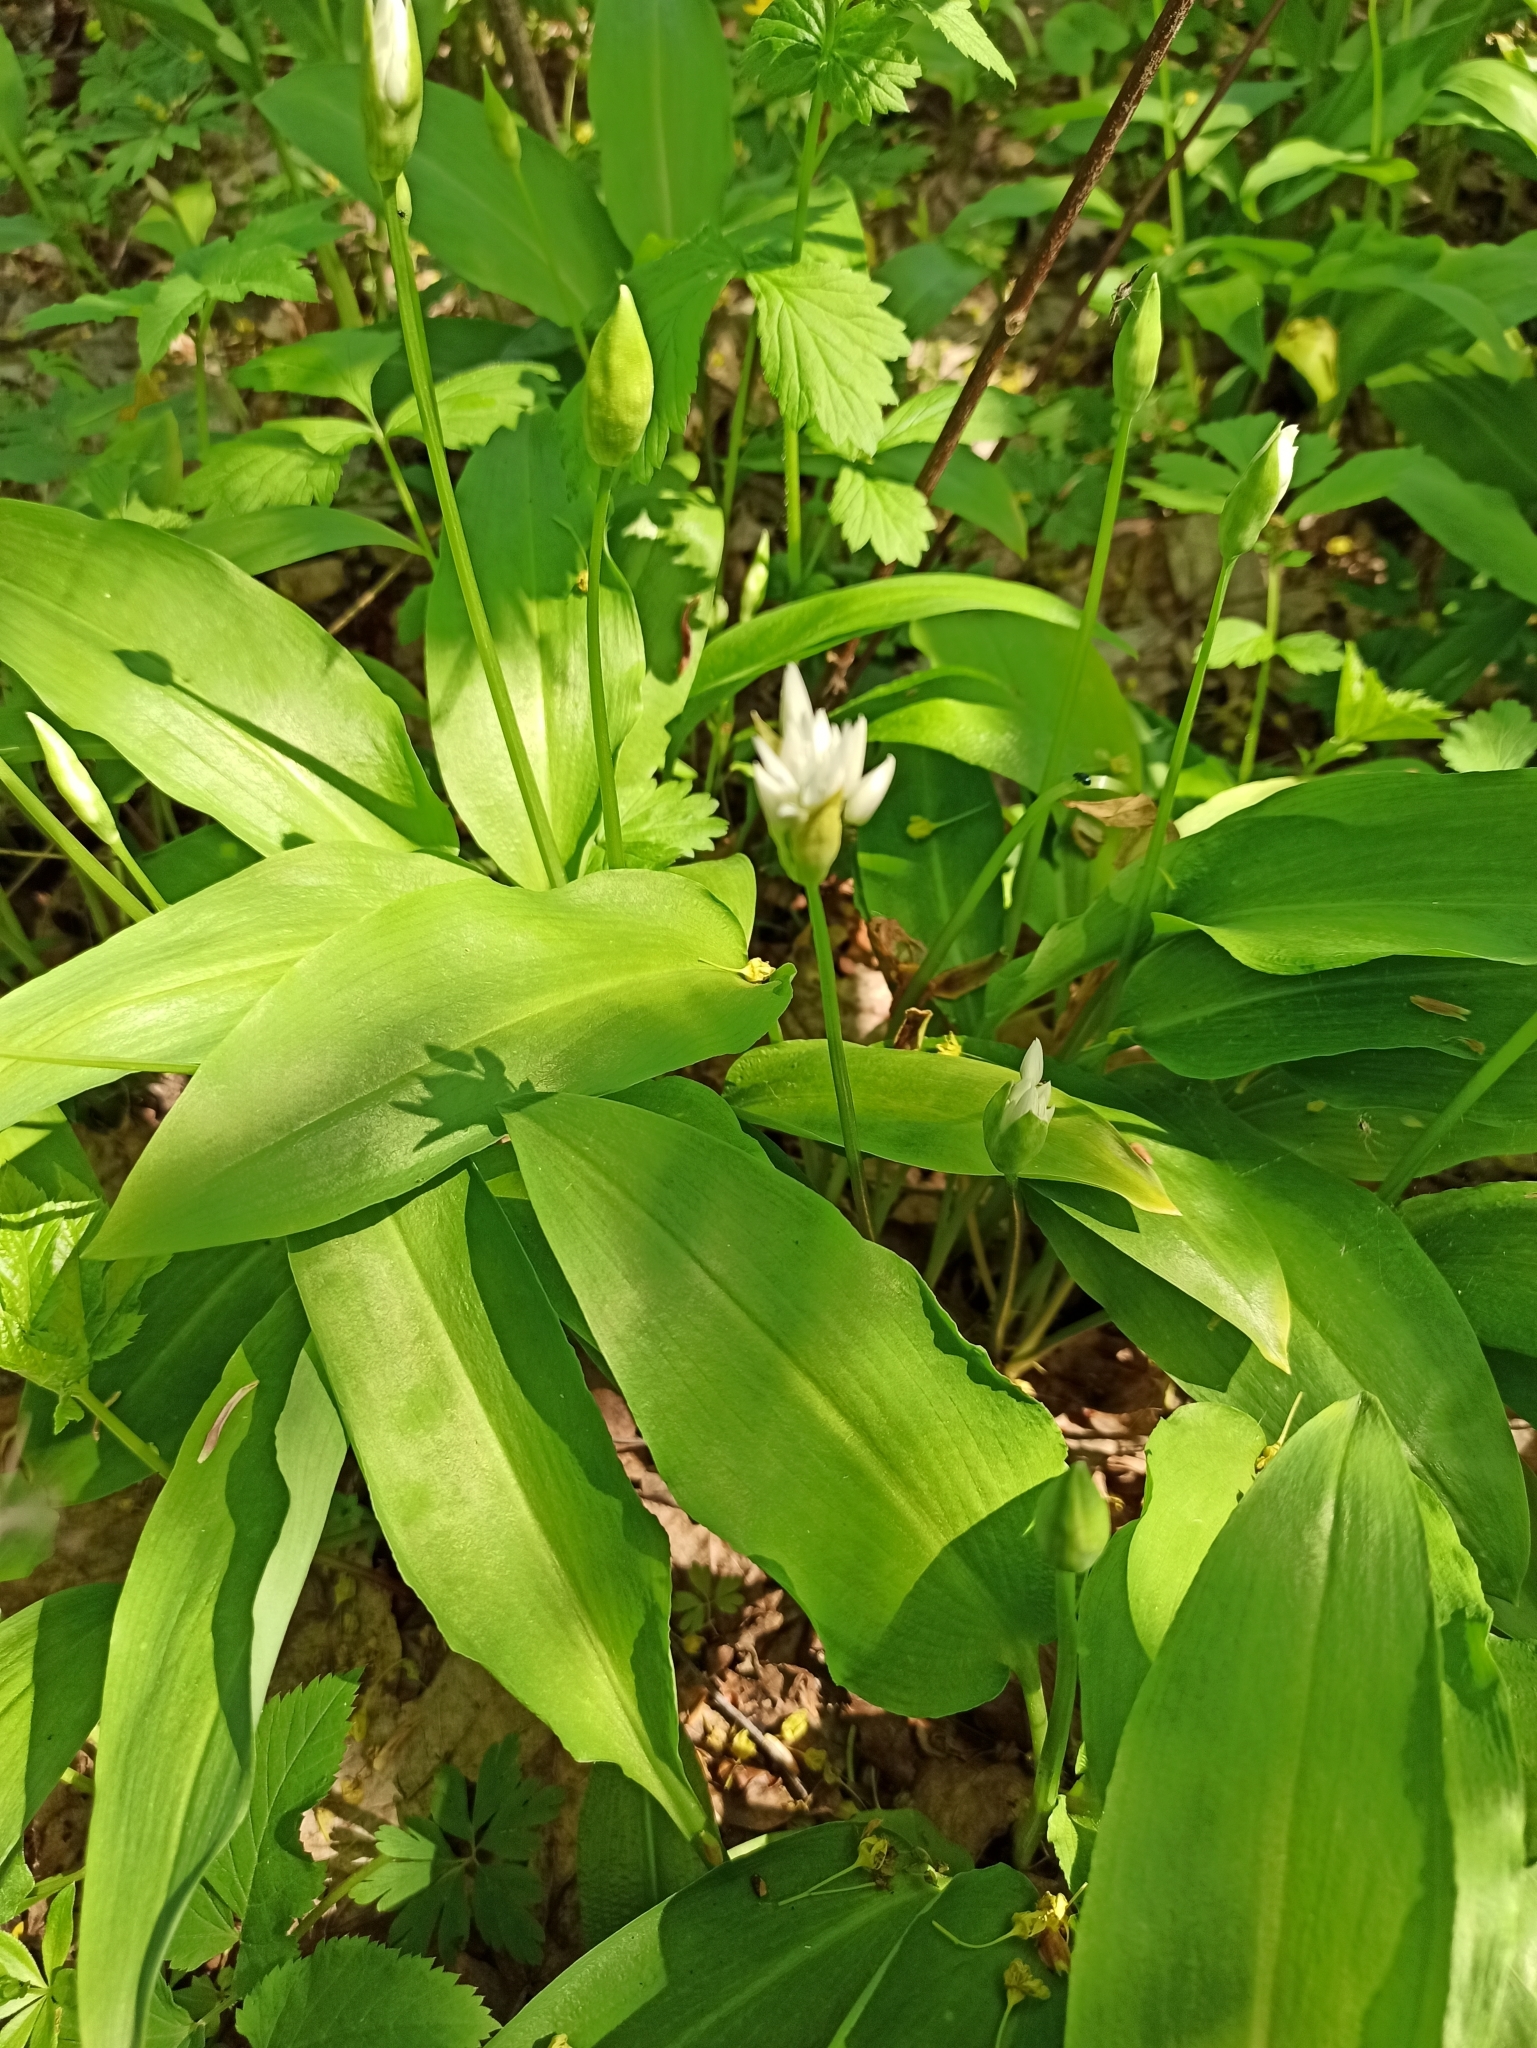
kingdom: Plantae
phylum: Tracheophyta
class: Liliopsida
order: Asparagales
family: Amaryllidaceae
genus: Allium
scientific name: Allium ursinum
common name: Ramsons
